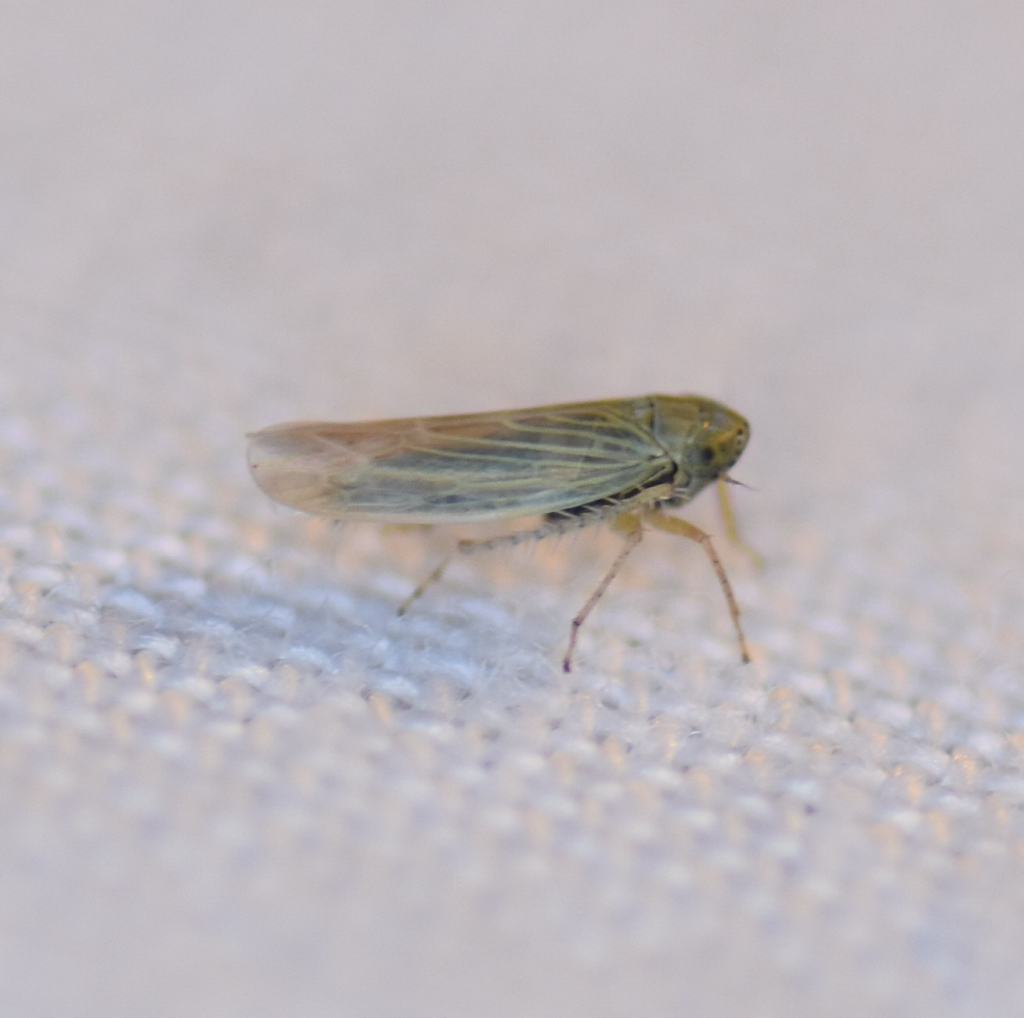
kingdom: Animalia
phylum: Arthropoda
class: Insecta
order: Hemiptera
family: Cicadellidae
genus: Graminella
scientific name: Graminella nigrifrons
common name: Blackfaced leafhopper
